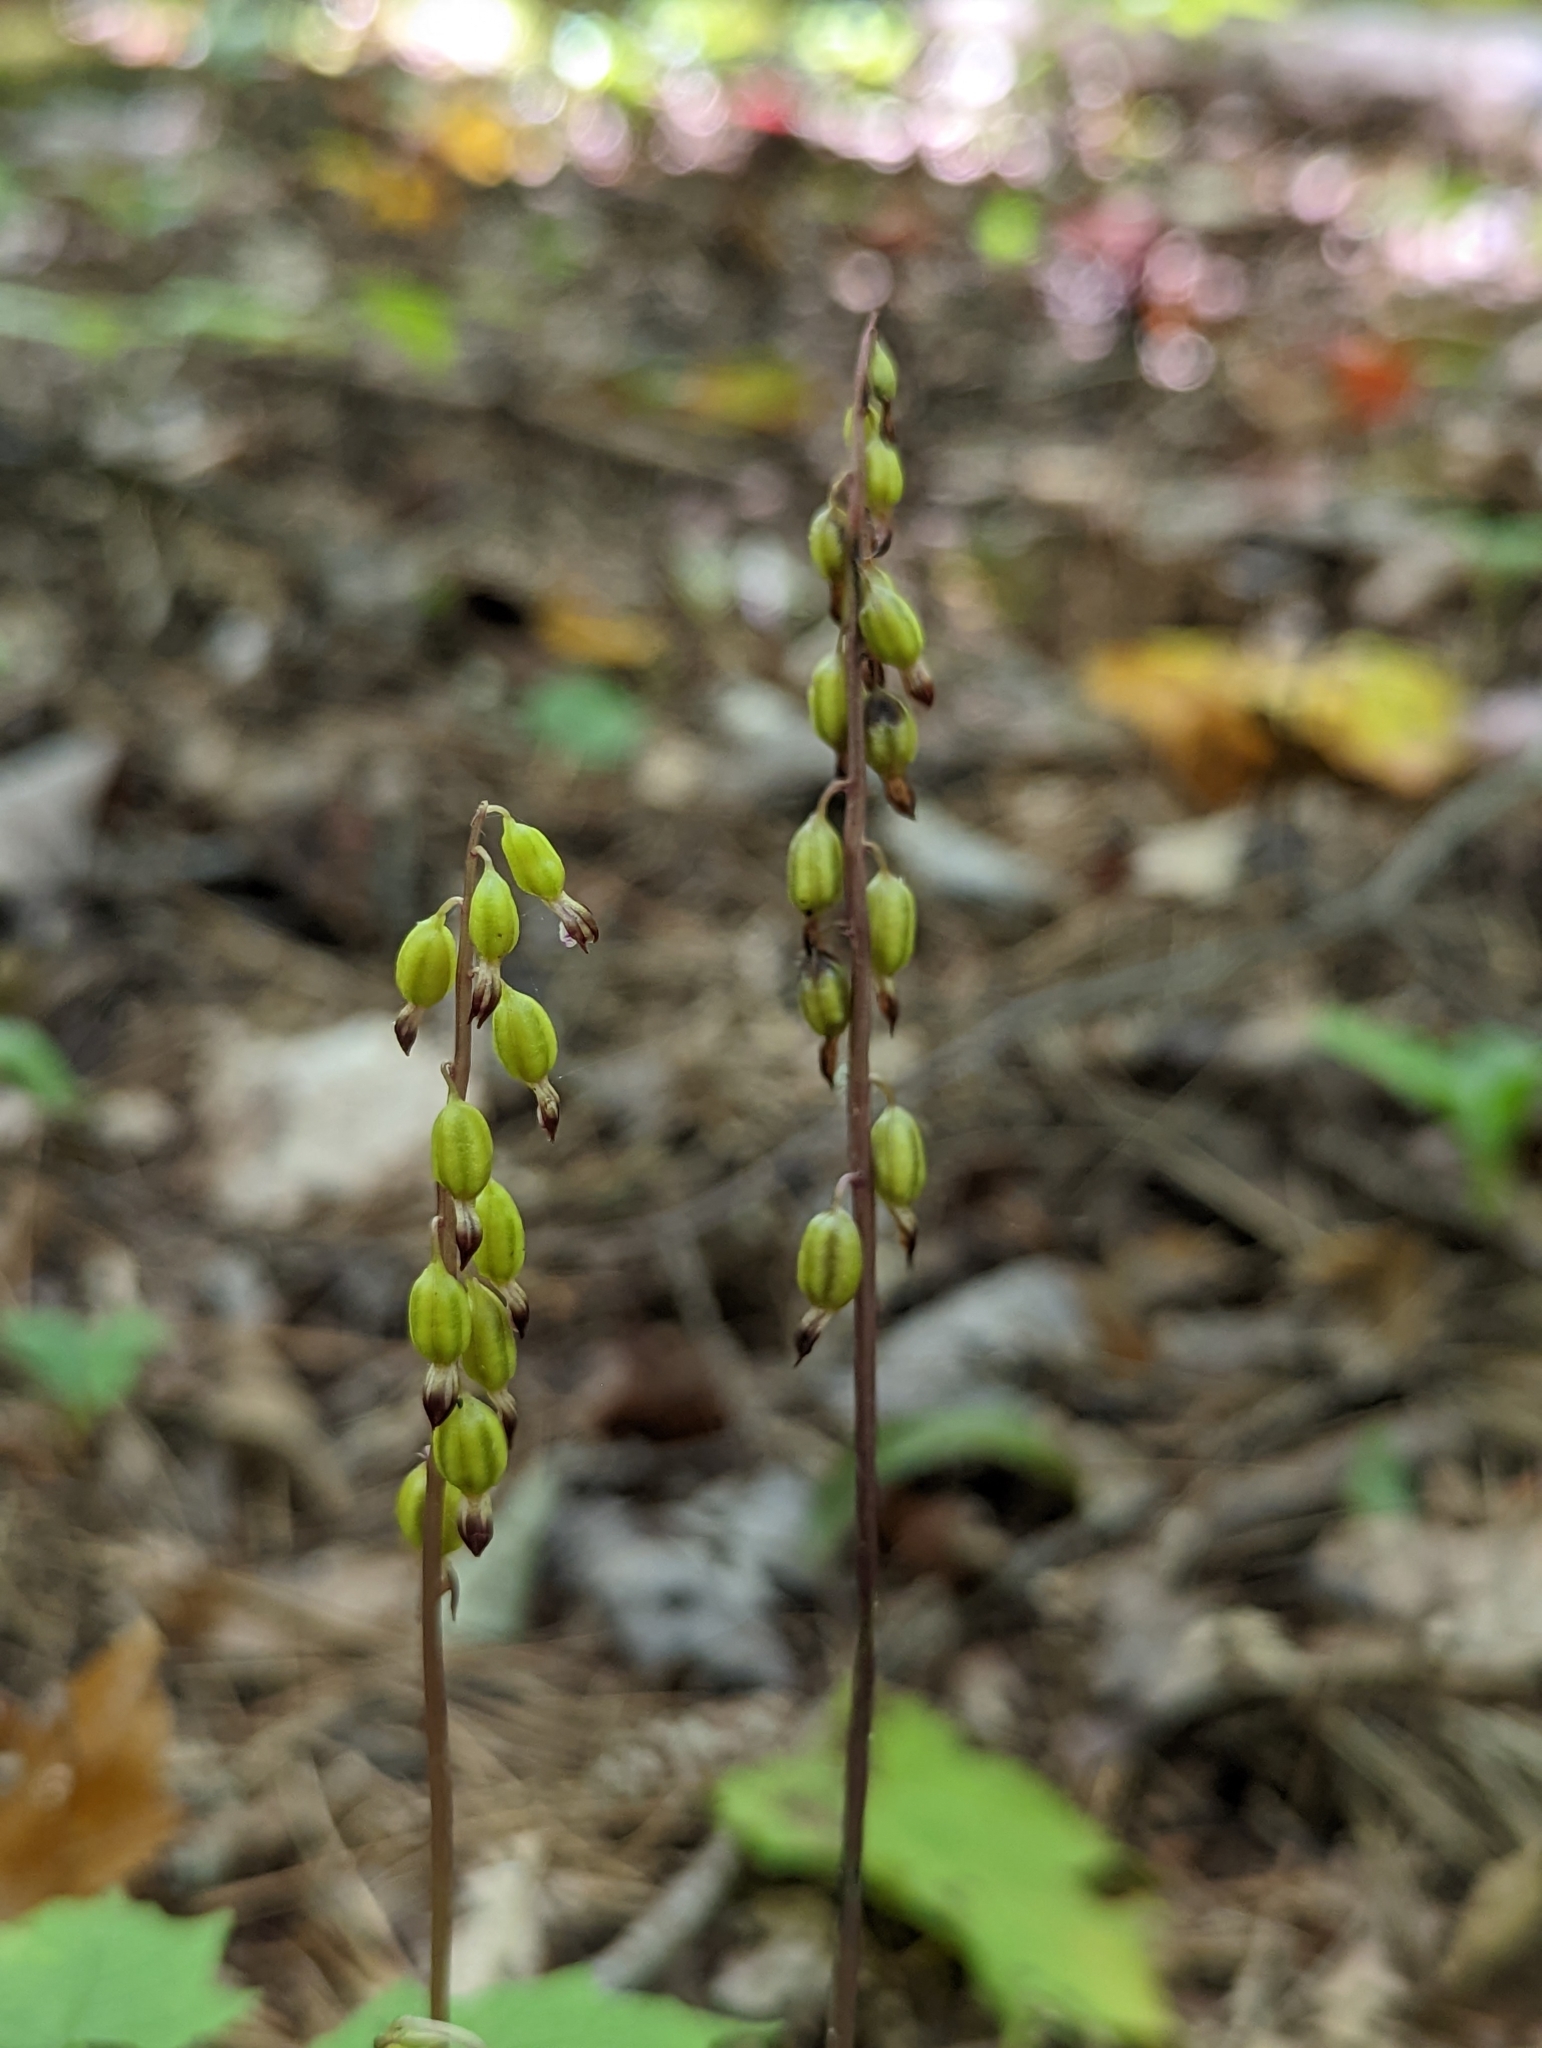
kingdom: Plantae
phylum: Tracheophyta
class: Liliopsida
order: Asparagales
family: Orchidaceae
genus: Corallorhiza
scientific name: Corallorhiza odontorhiza
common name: Autumn coralroot
